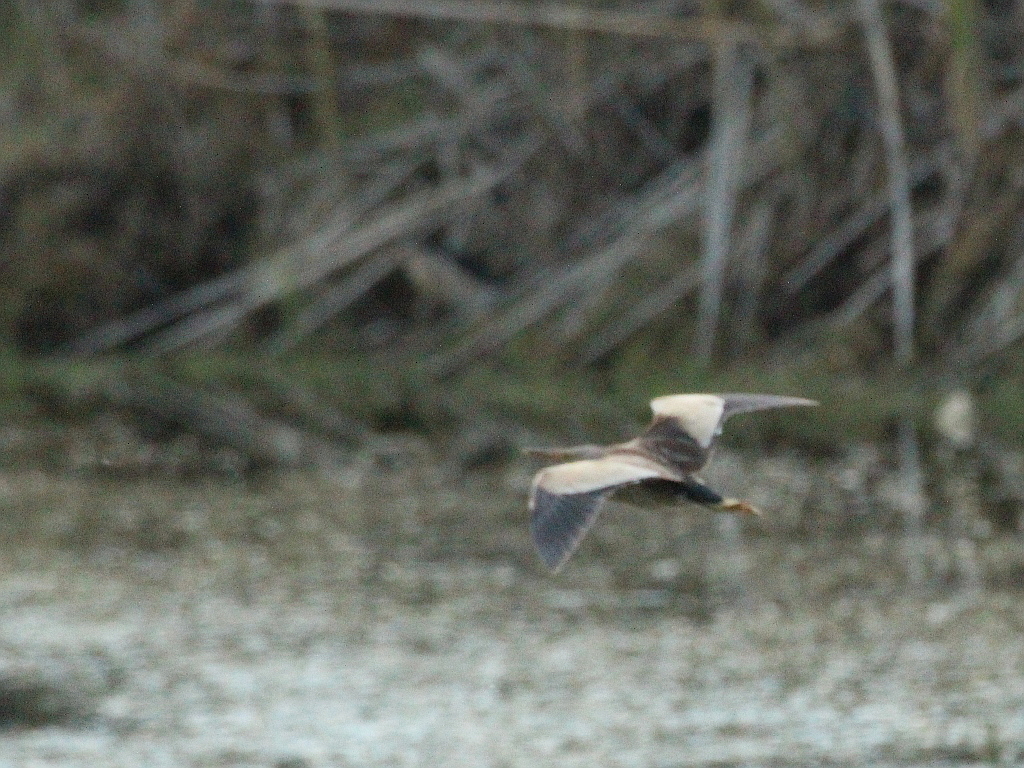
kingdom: Animalia
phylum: Chordata
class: Aves
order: Pelecaniformes
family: Ardeidae
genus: Ixobrychus
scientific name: Ixobrychus minutus
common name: Little bittern
